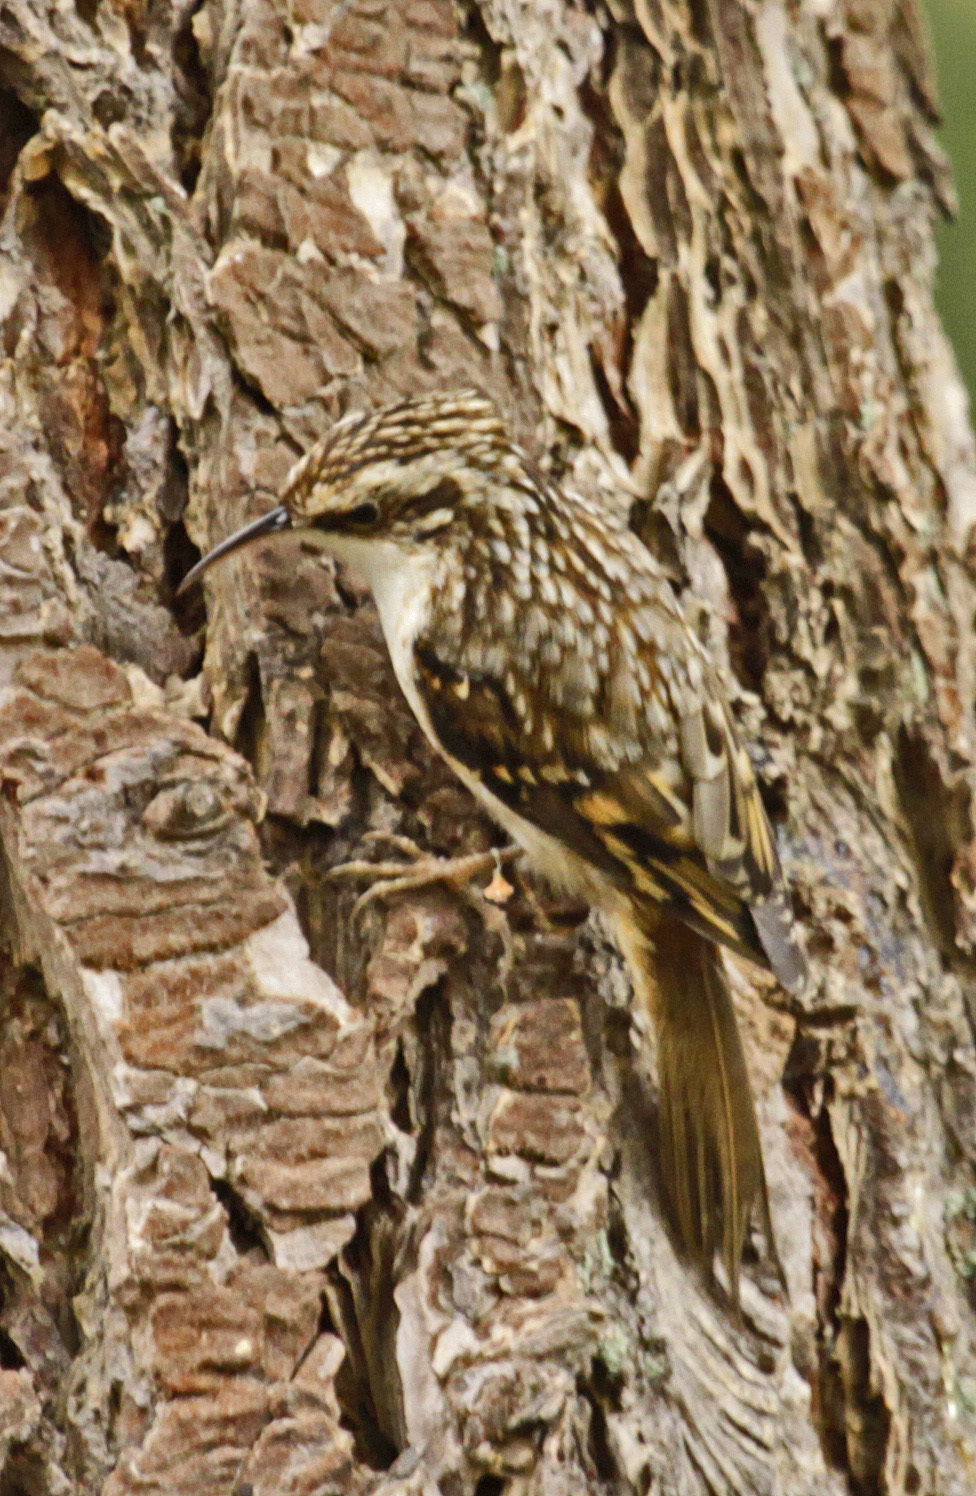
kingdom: Animalia
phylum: Chordata
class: Aves
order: Passeriformes
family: Certhiidae
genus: Certhia
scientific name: Certhia americana
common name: Brown creeper
